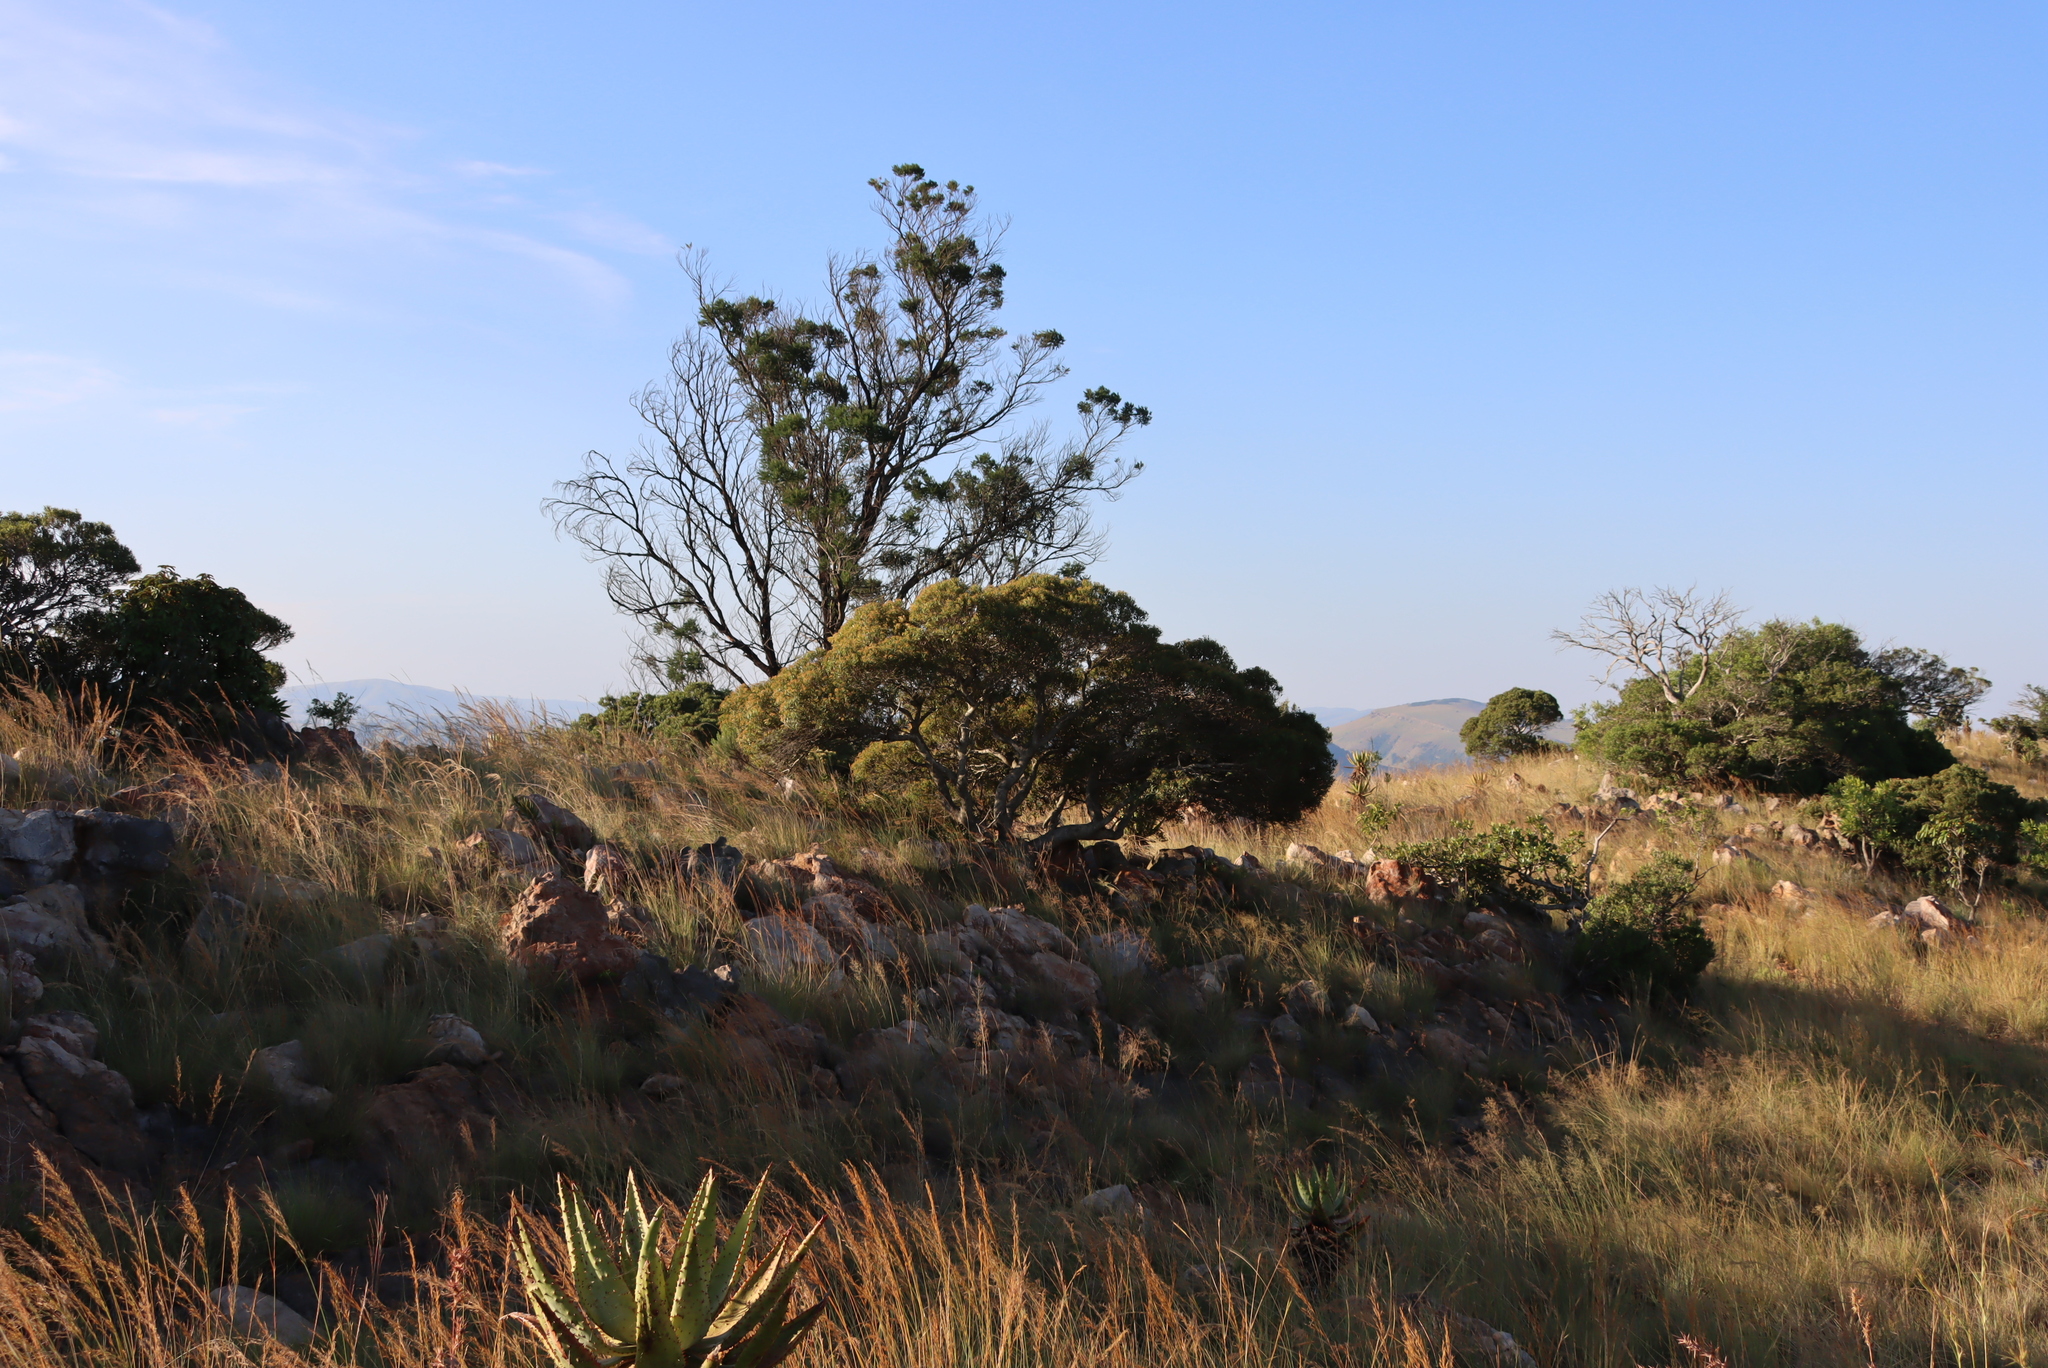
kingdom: Plantae
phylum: Tracheophyta
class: Magnoliopsida
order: Fabales
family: Fabaceae
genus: Acacia
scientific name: Acacia mearnsii
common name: Black wattle
